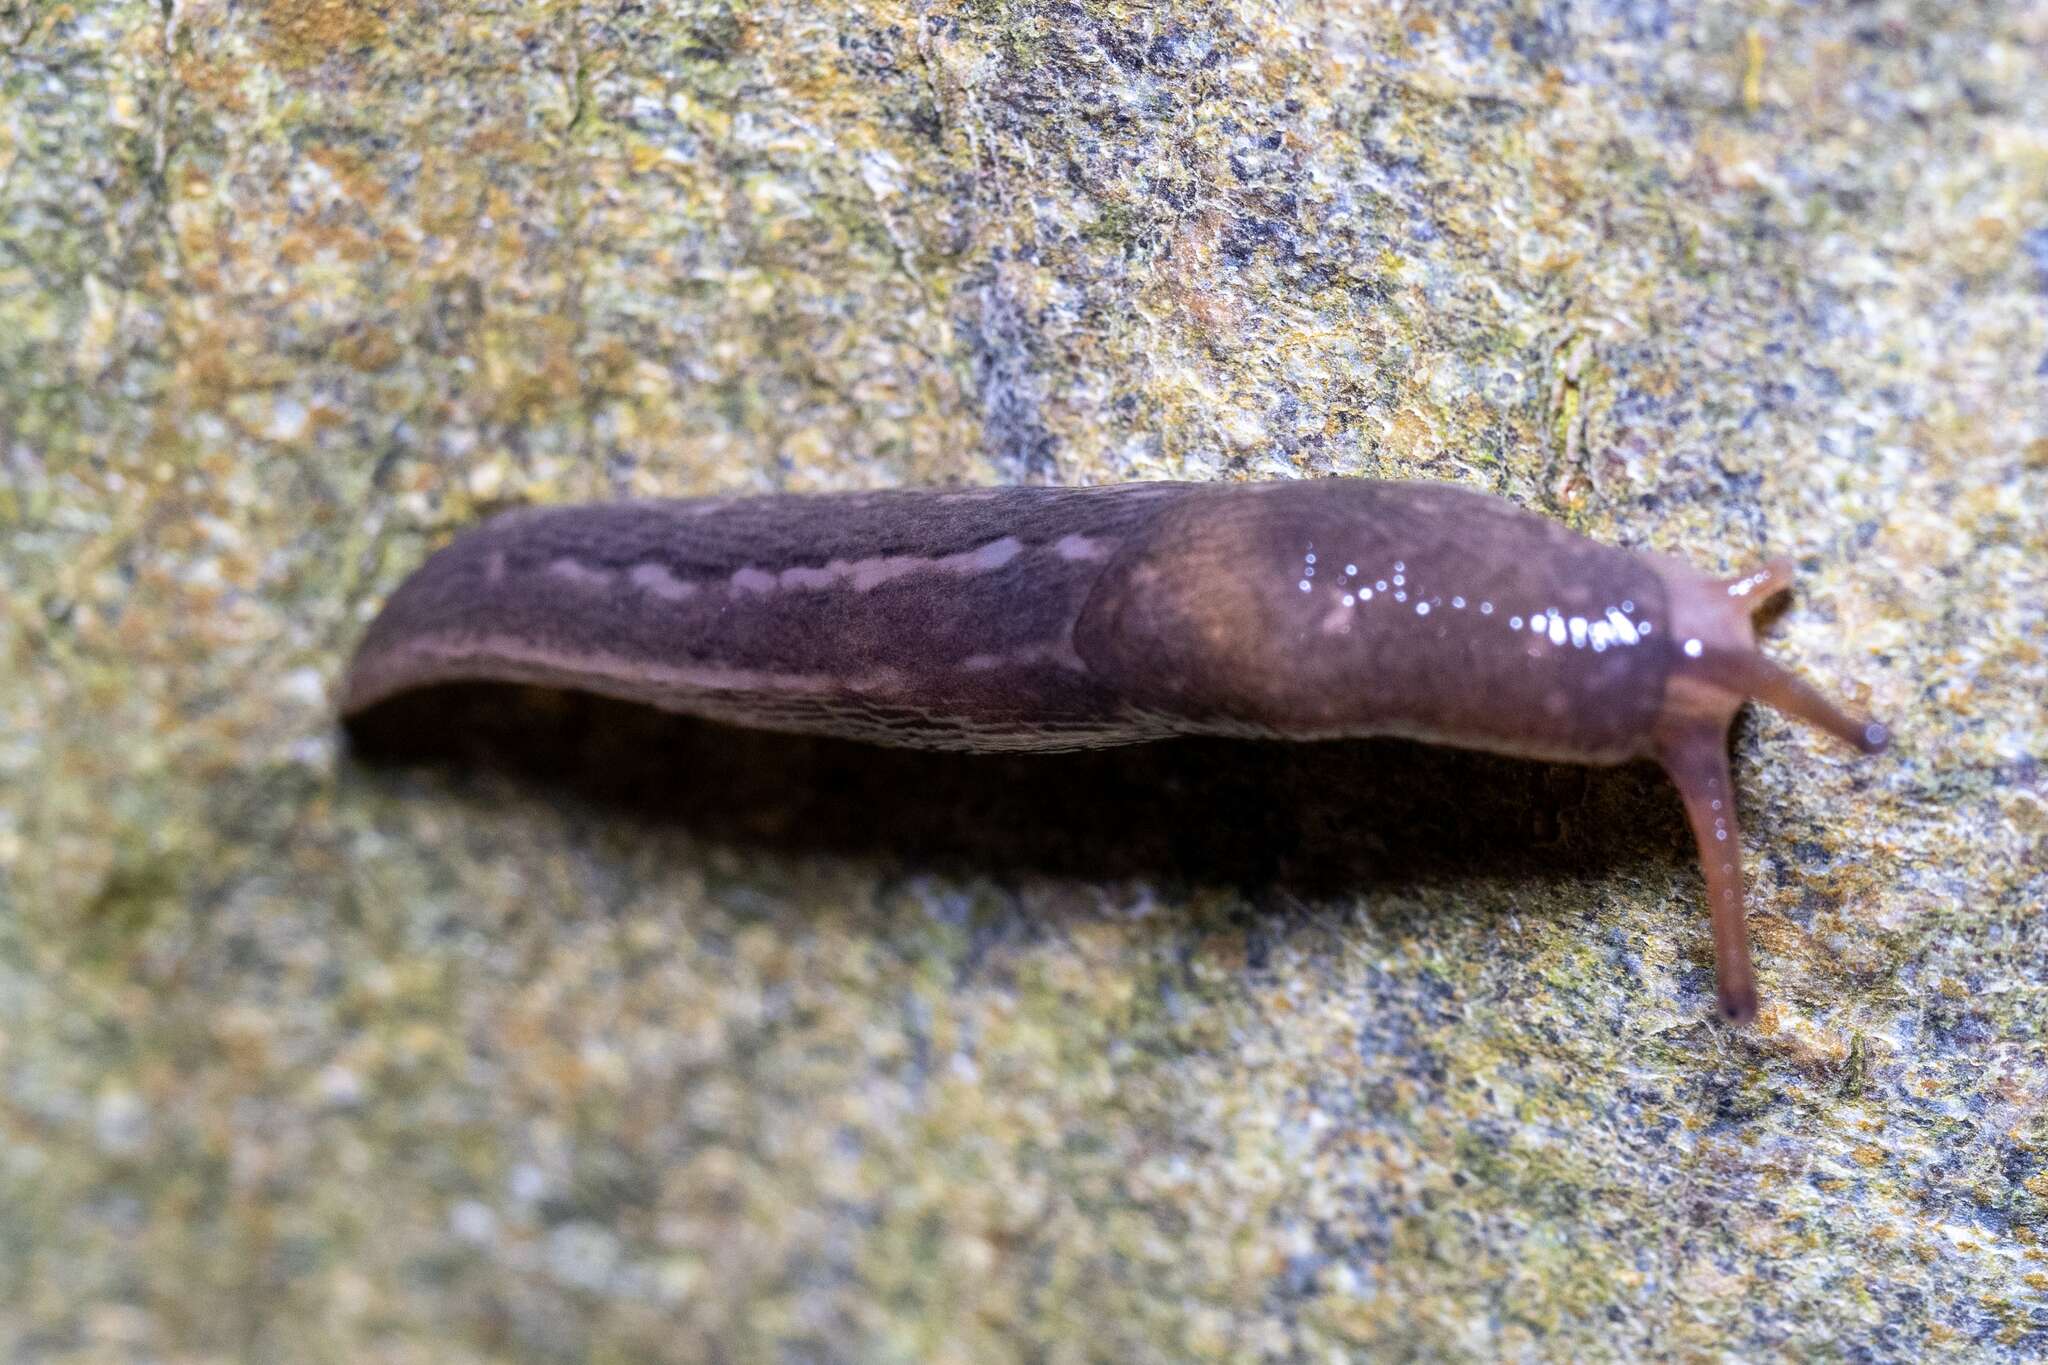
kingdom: Animalia
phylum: Mollusca
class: Gastropoda
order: Stylommatophora
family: Limacidae
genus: Limax
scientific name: Limax maximus
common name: Great grey slug
